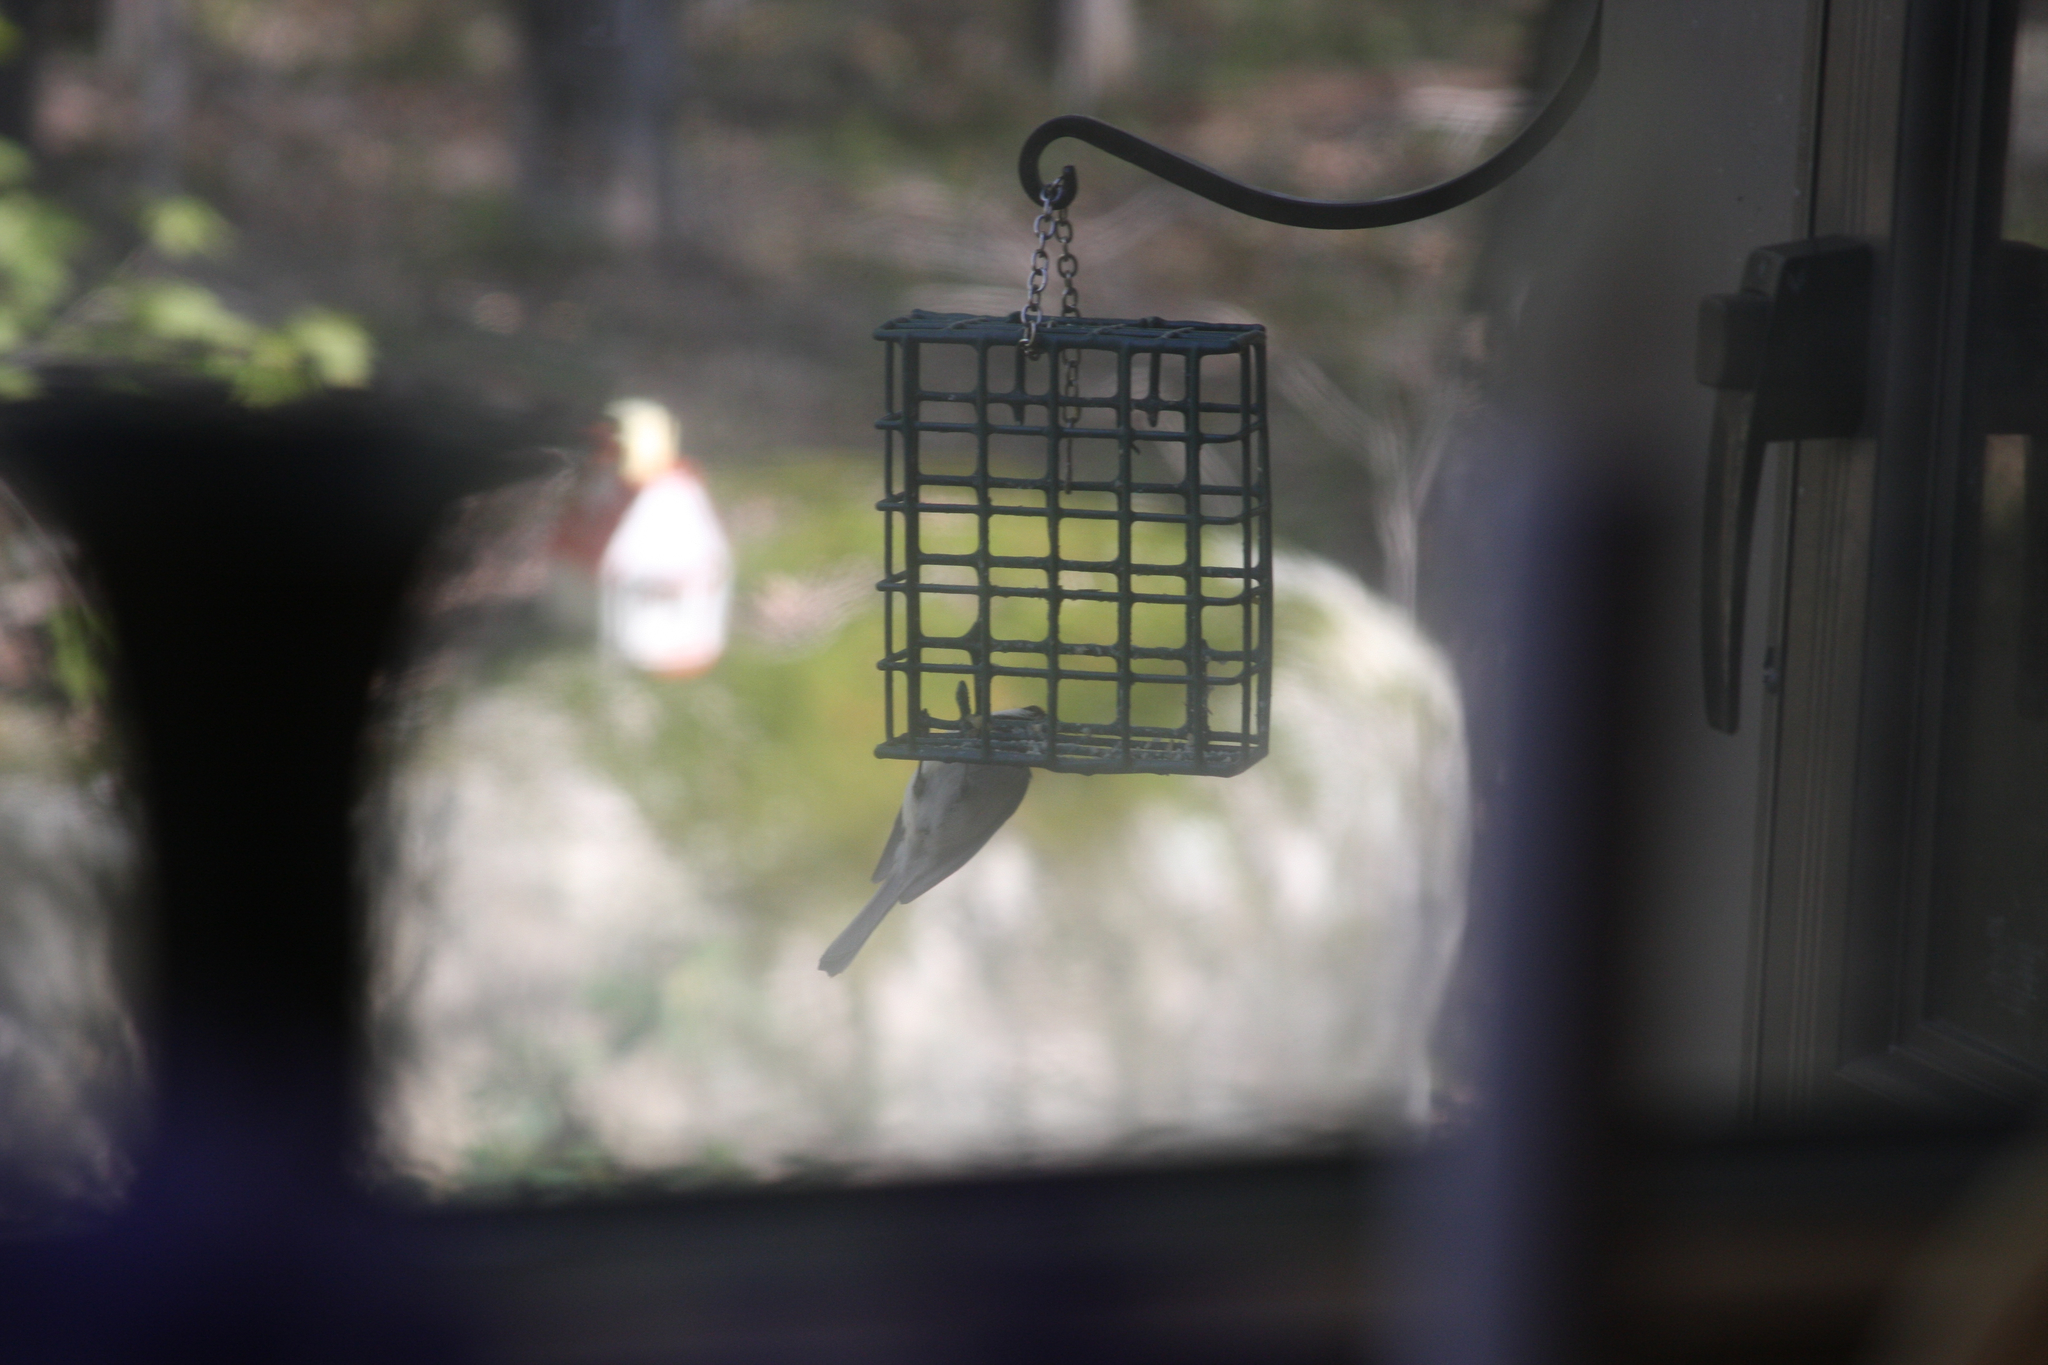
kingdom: Animalia
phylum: Chordata
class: Aves
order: Passeriformes
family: Paridae
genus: Poecile
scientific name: Poecile atricapillus
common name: Black-capped chickadee
